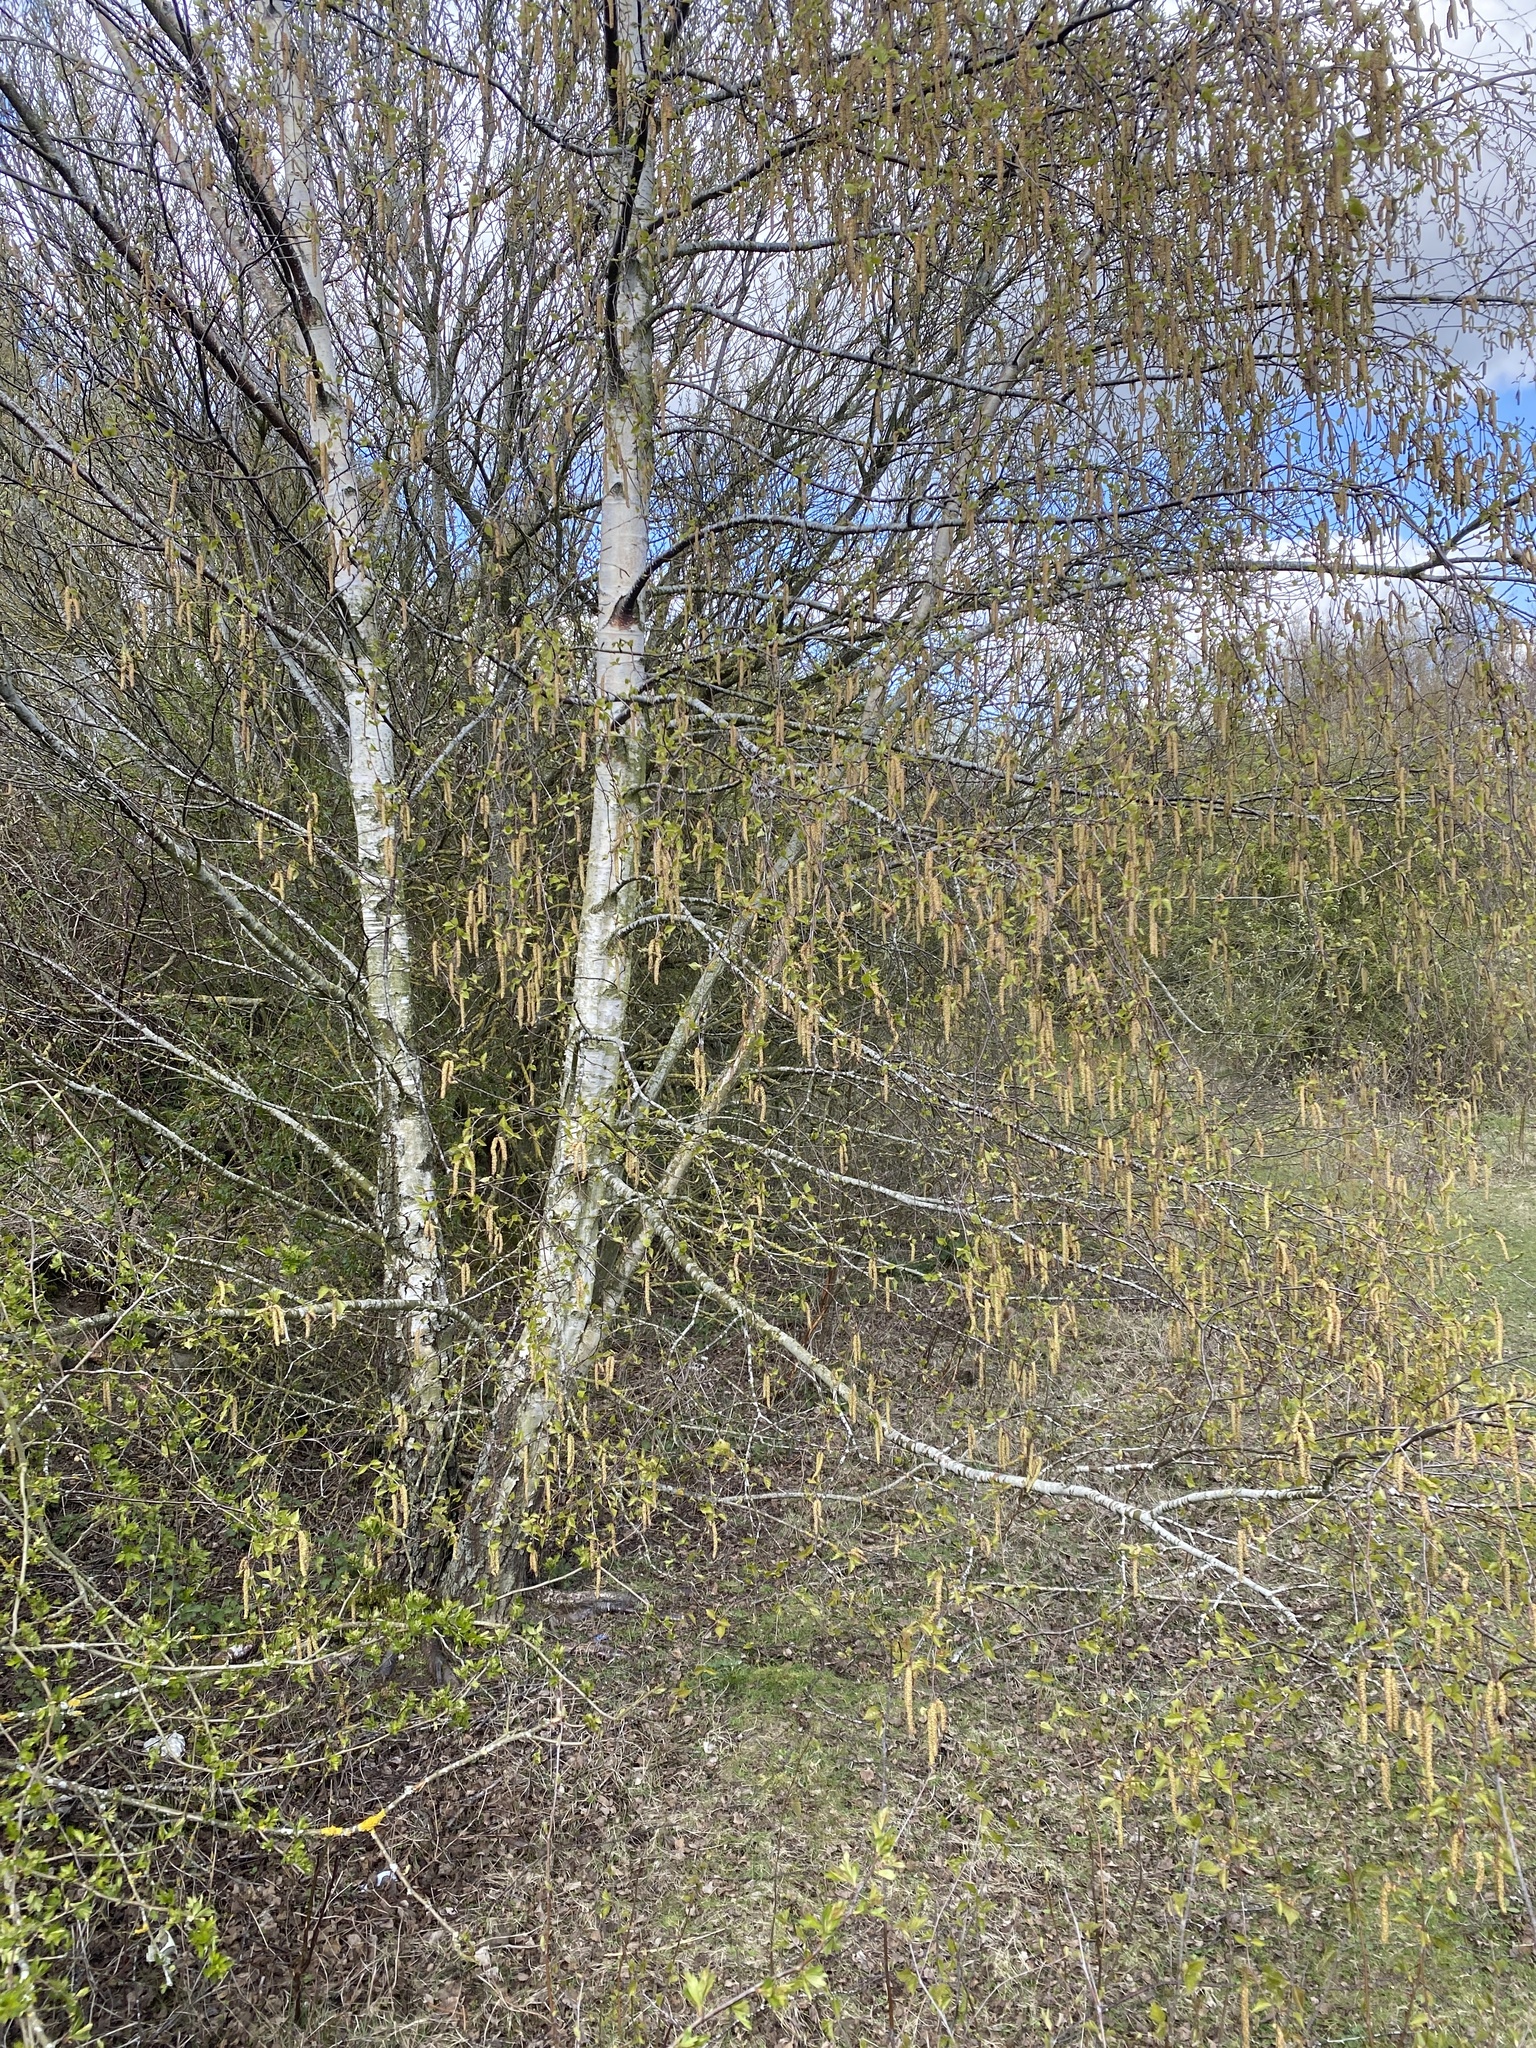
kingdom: Plantae
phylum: Tracheophyta
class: Magnoliopsida
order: Fagales
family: Betulaceae
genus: Betula
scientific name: Betula pendula
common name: Silver birch
